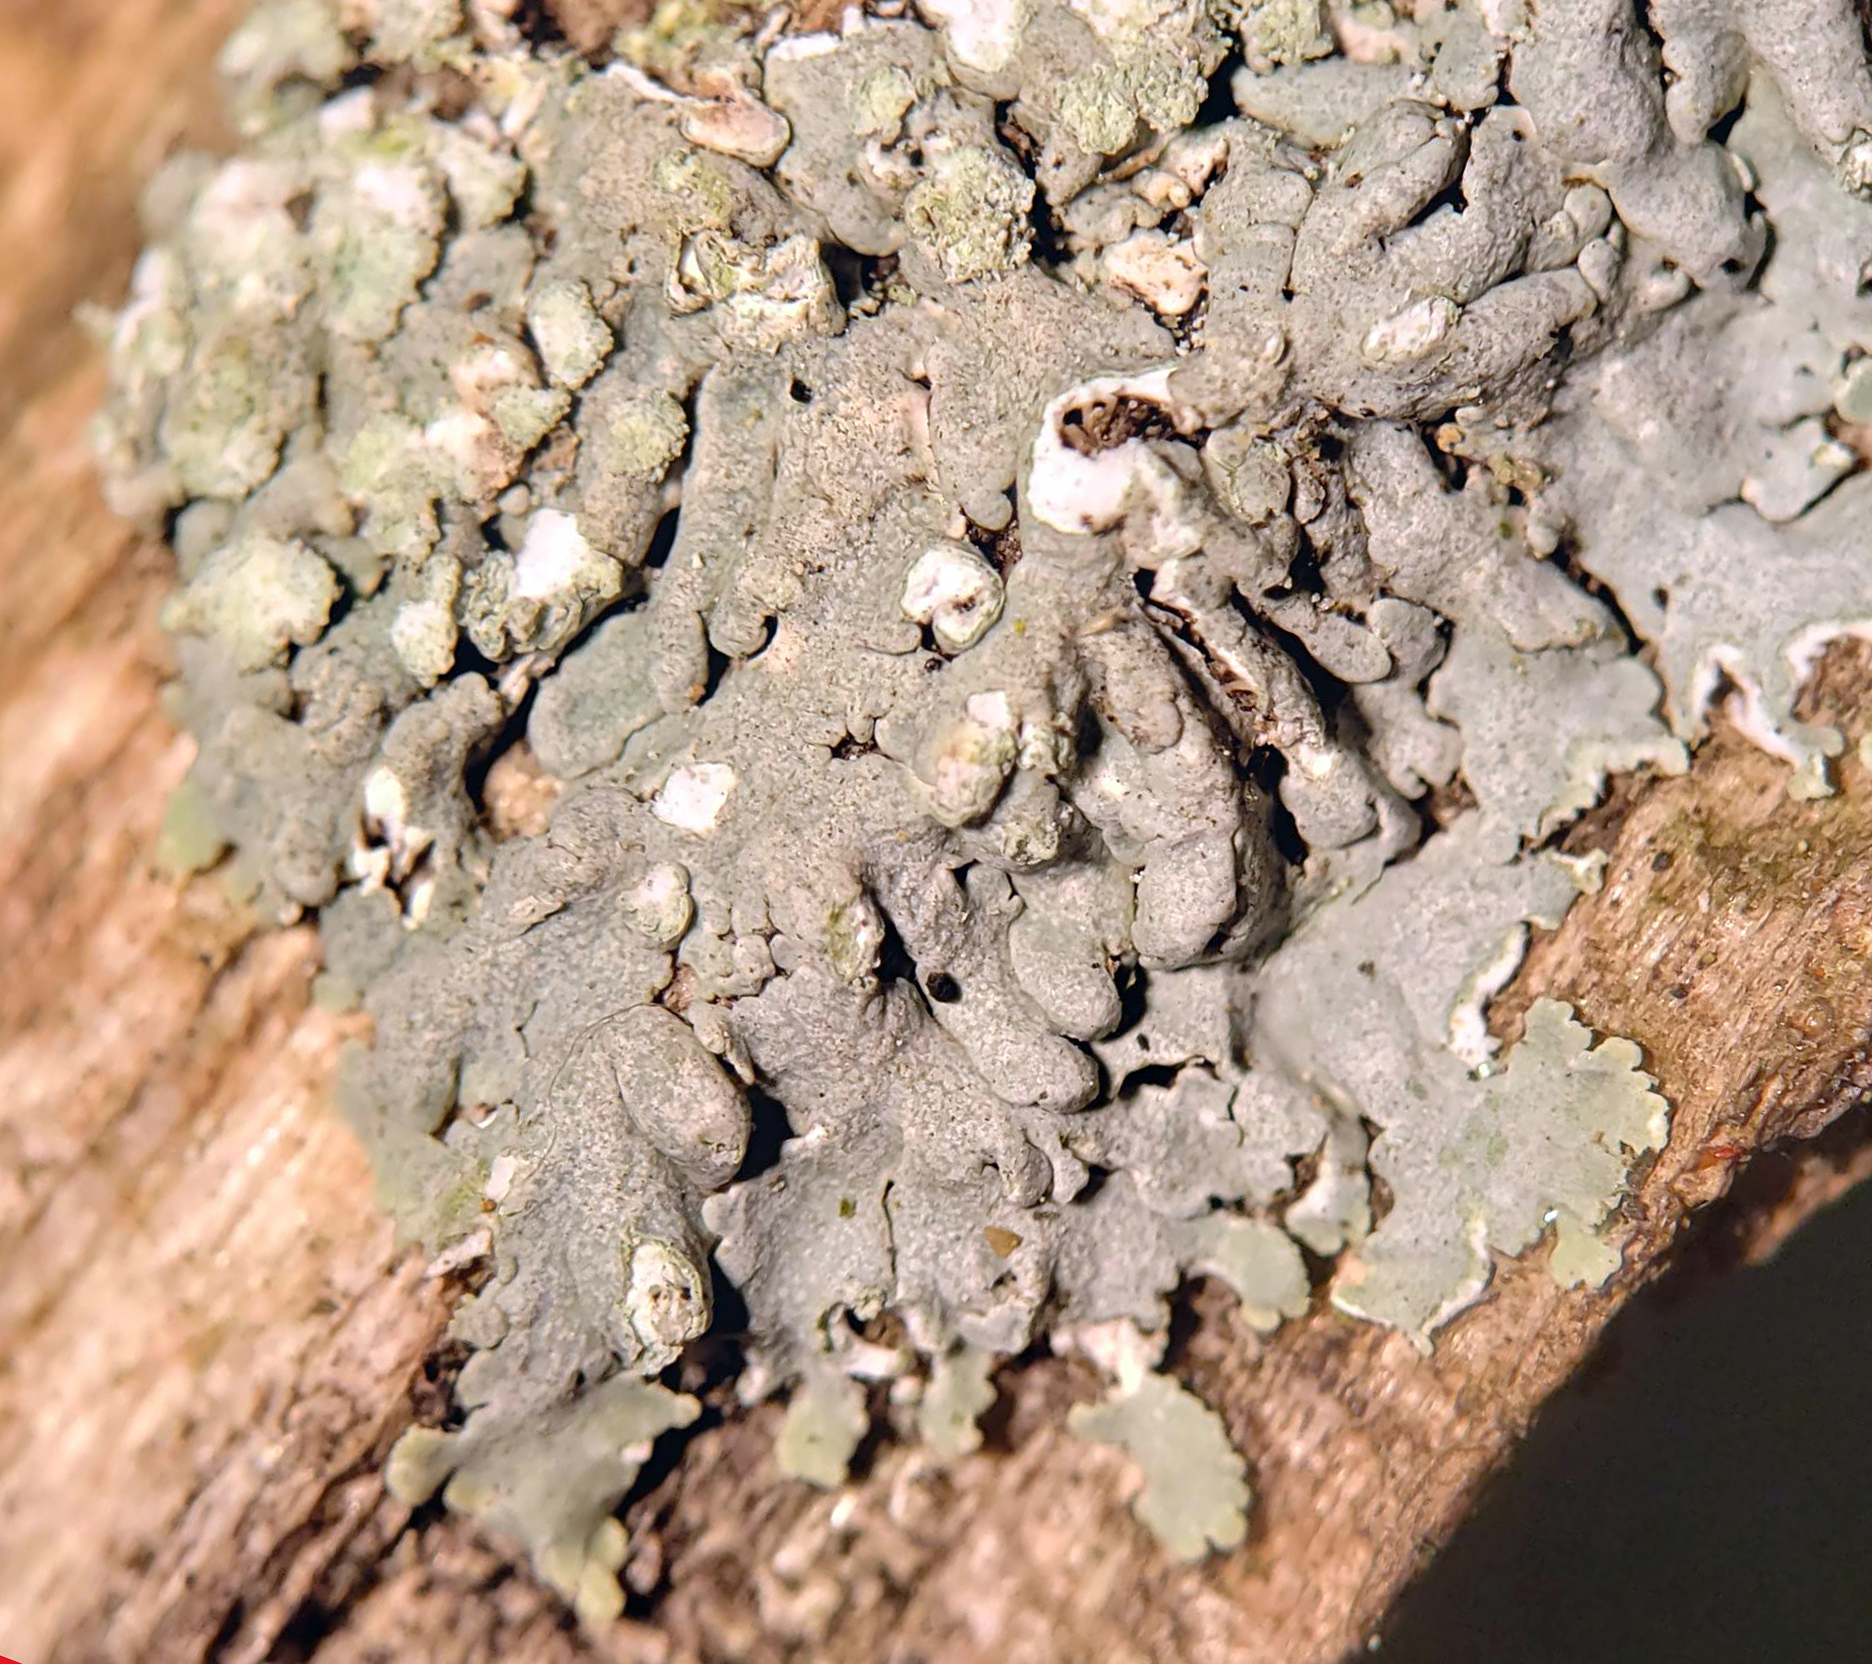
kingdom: Fungi
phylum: Ascomycota
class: Lecanoromycetes
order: Caliciales
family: Physciaceae
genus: Physcia
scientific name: Physcia americana
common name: American rosette lichen
